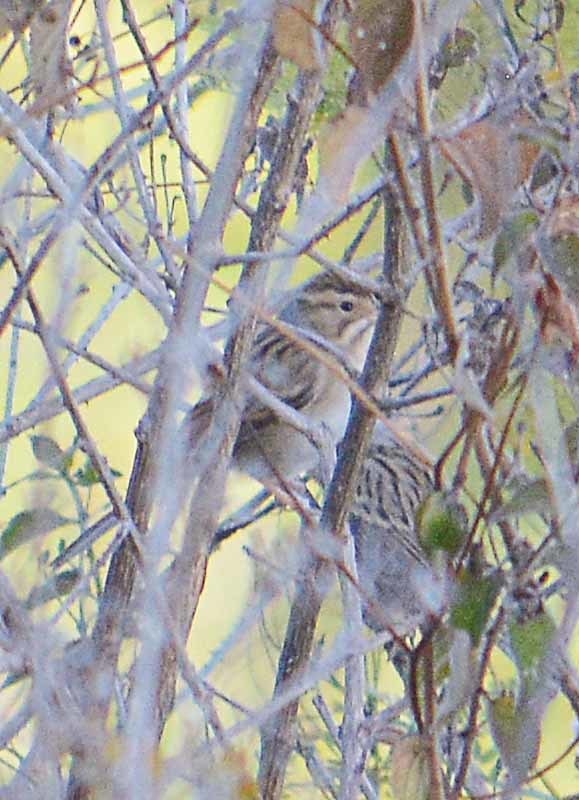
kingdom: Animalia
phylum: Chordata
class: Aves
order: Passeriformes
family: Passerellidae
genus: Spizella
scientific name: Spizella pallida
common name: Clay-colored sparrow
